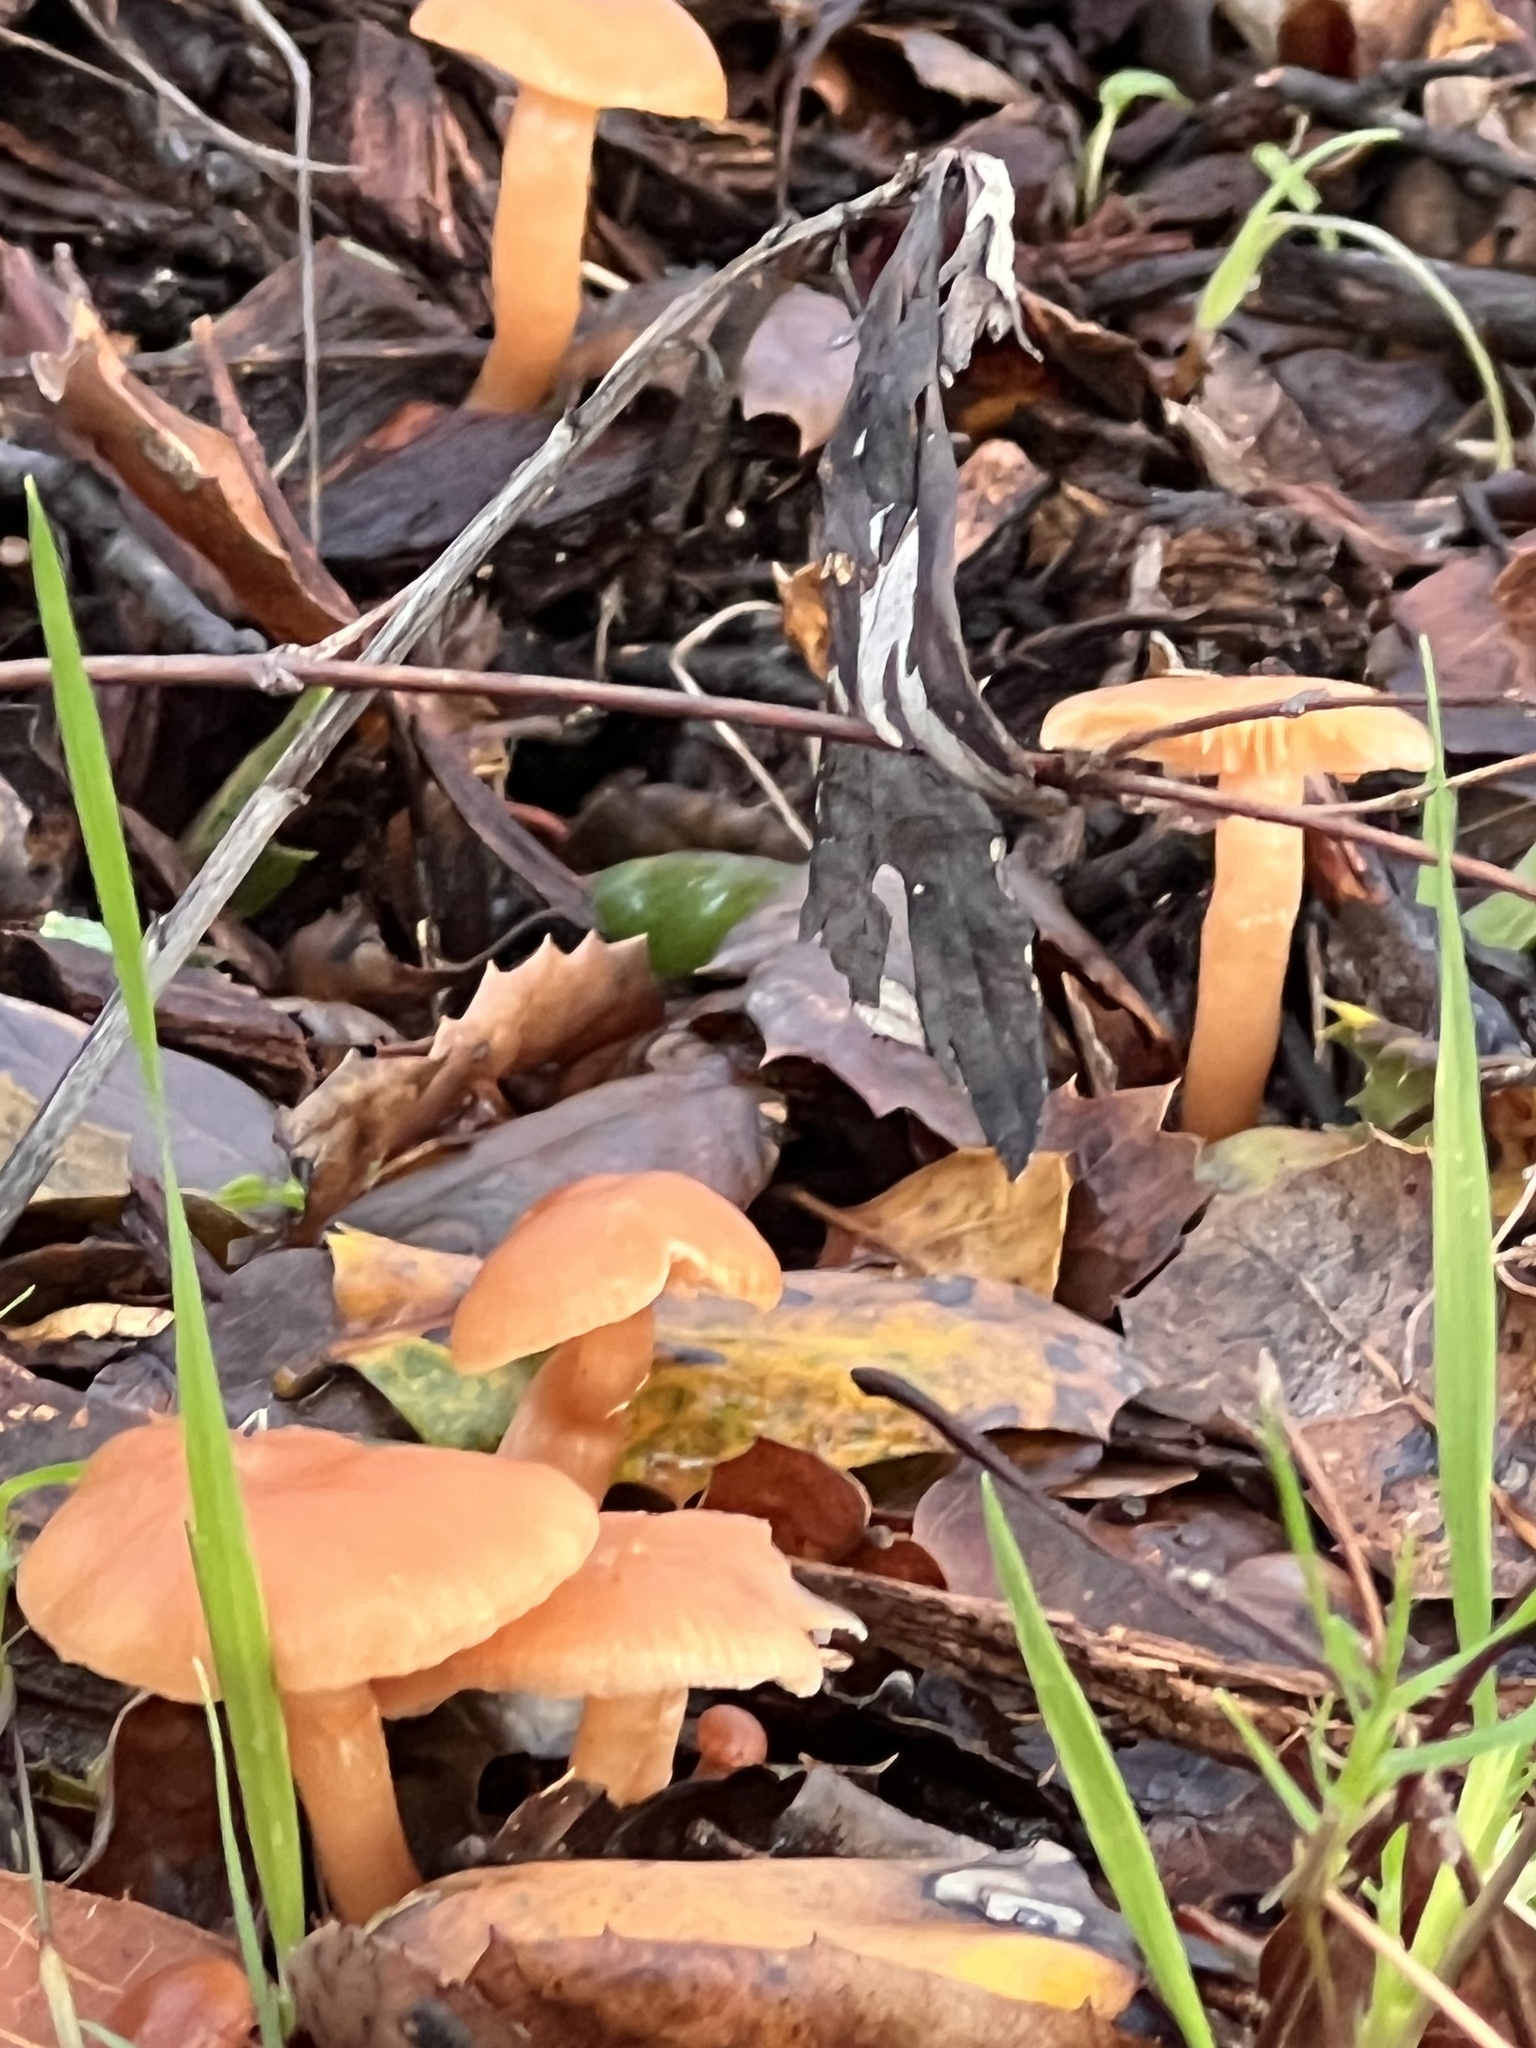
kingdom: Fungi
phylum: Basidiomycota
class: Agaricomycetes
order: Agaricales
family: Tubariaceae
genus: Tubaria
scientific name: Tubaria furfuracea
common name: Scurfy twiglet
